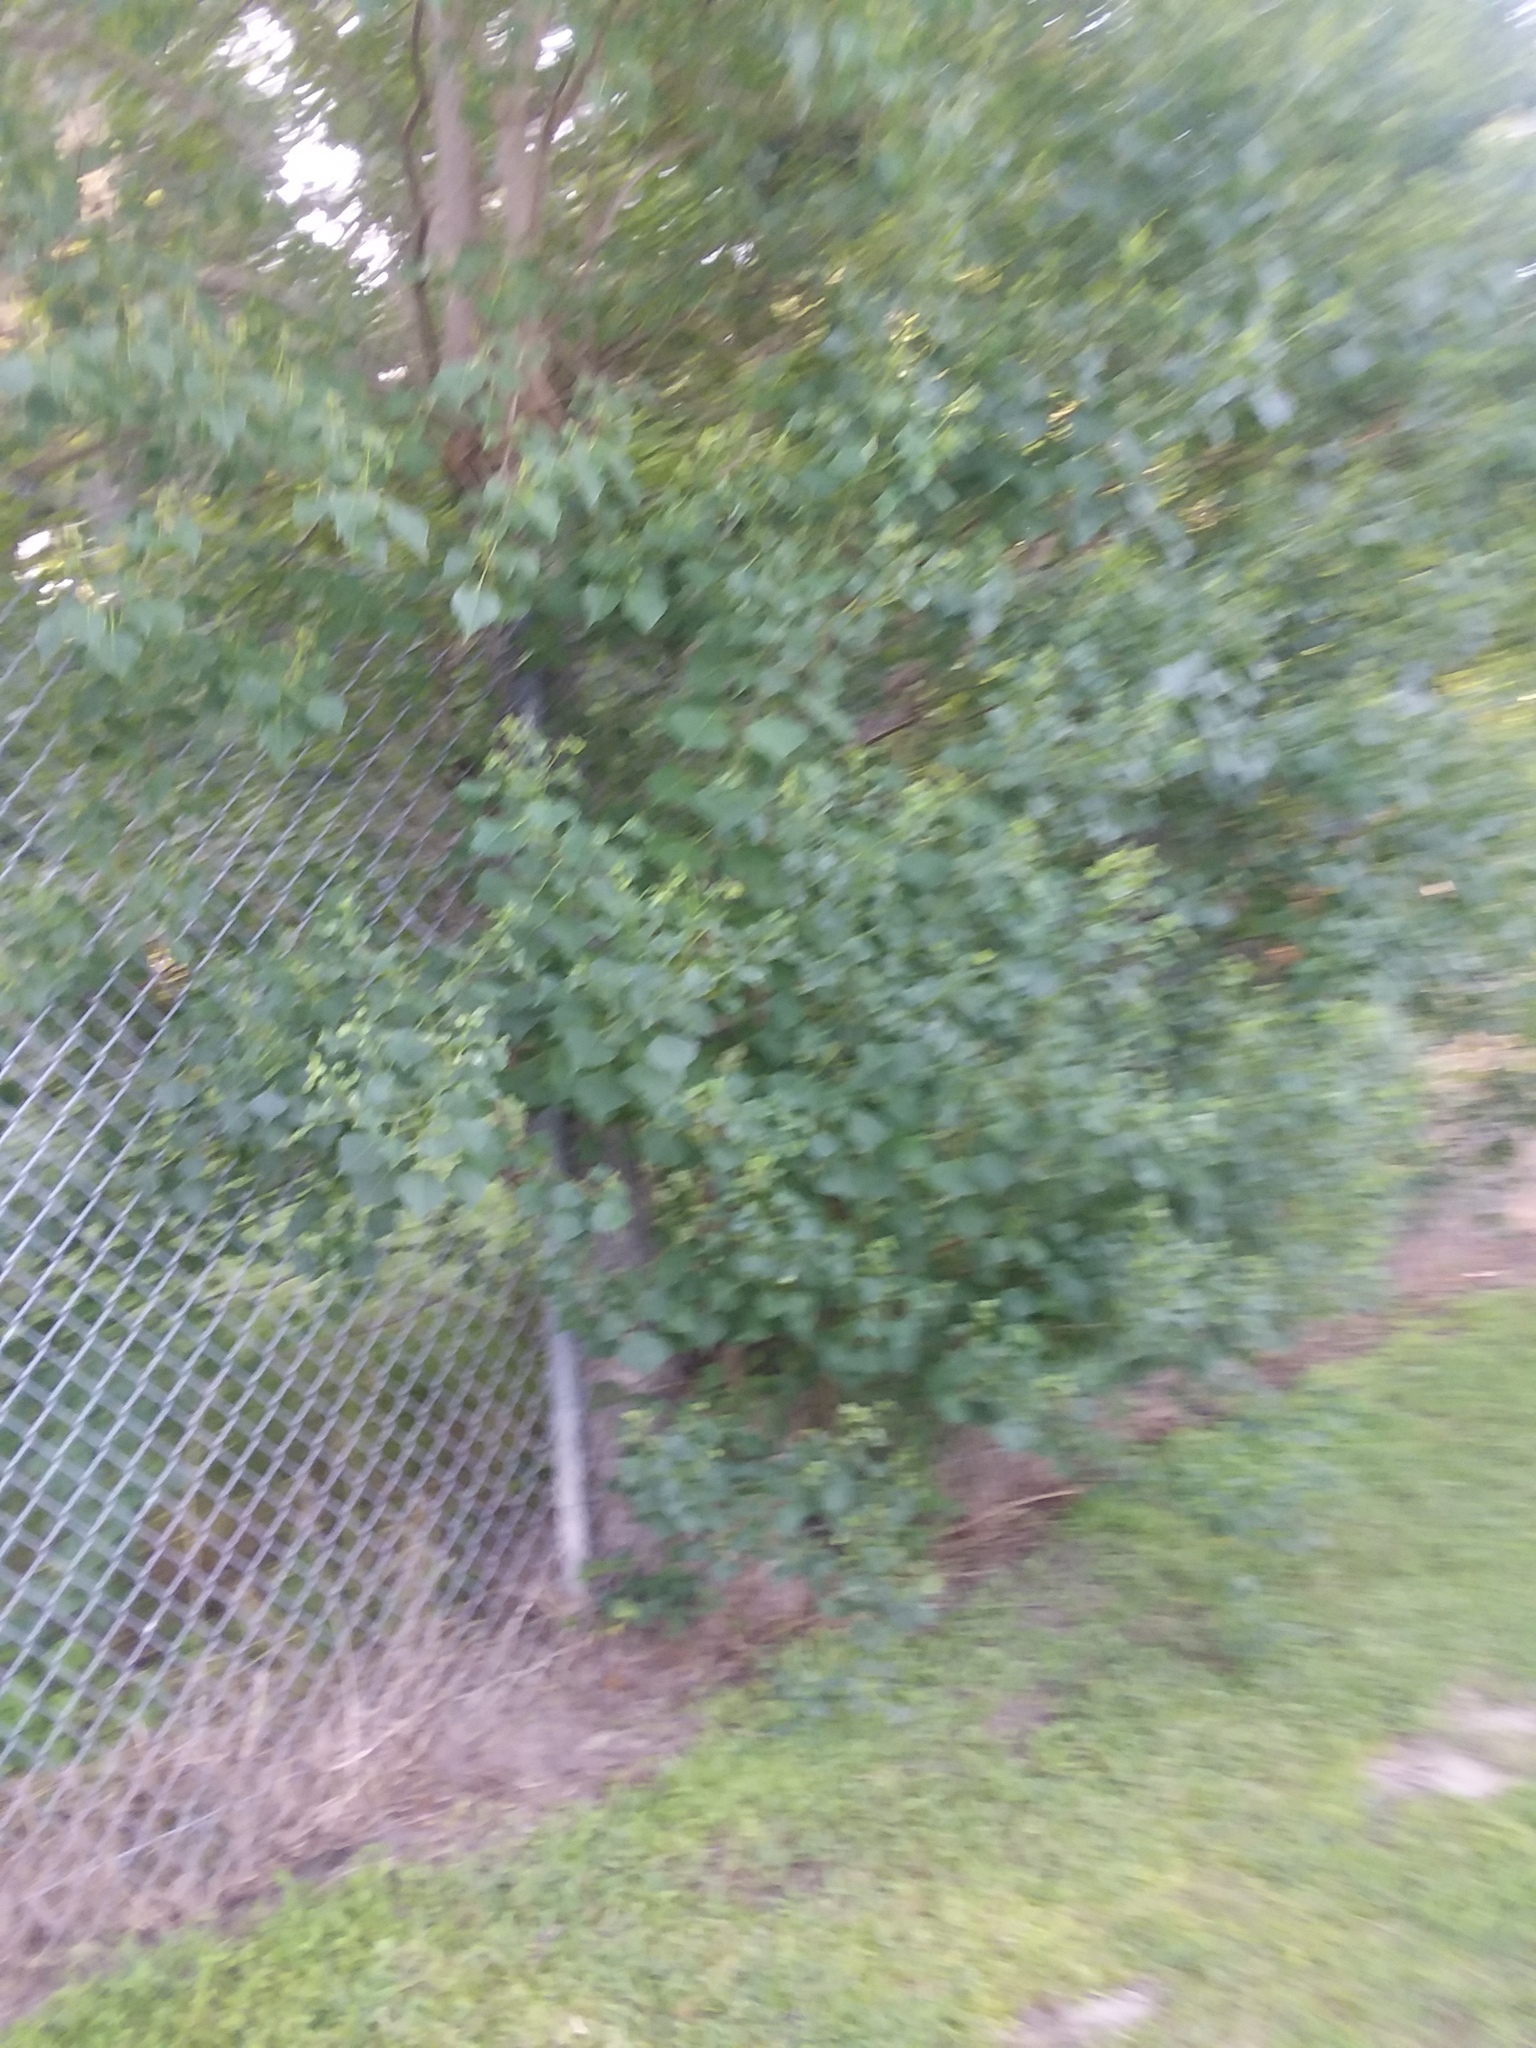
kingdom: Plantae
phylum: Tracheophyta
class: Magnoliopsida
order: Malpighiales
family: Euphorbiaceae
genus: Triadica
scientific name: Triadica sebifera
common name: Chinese tallow
